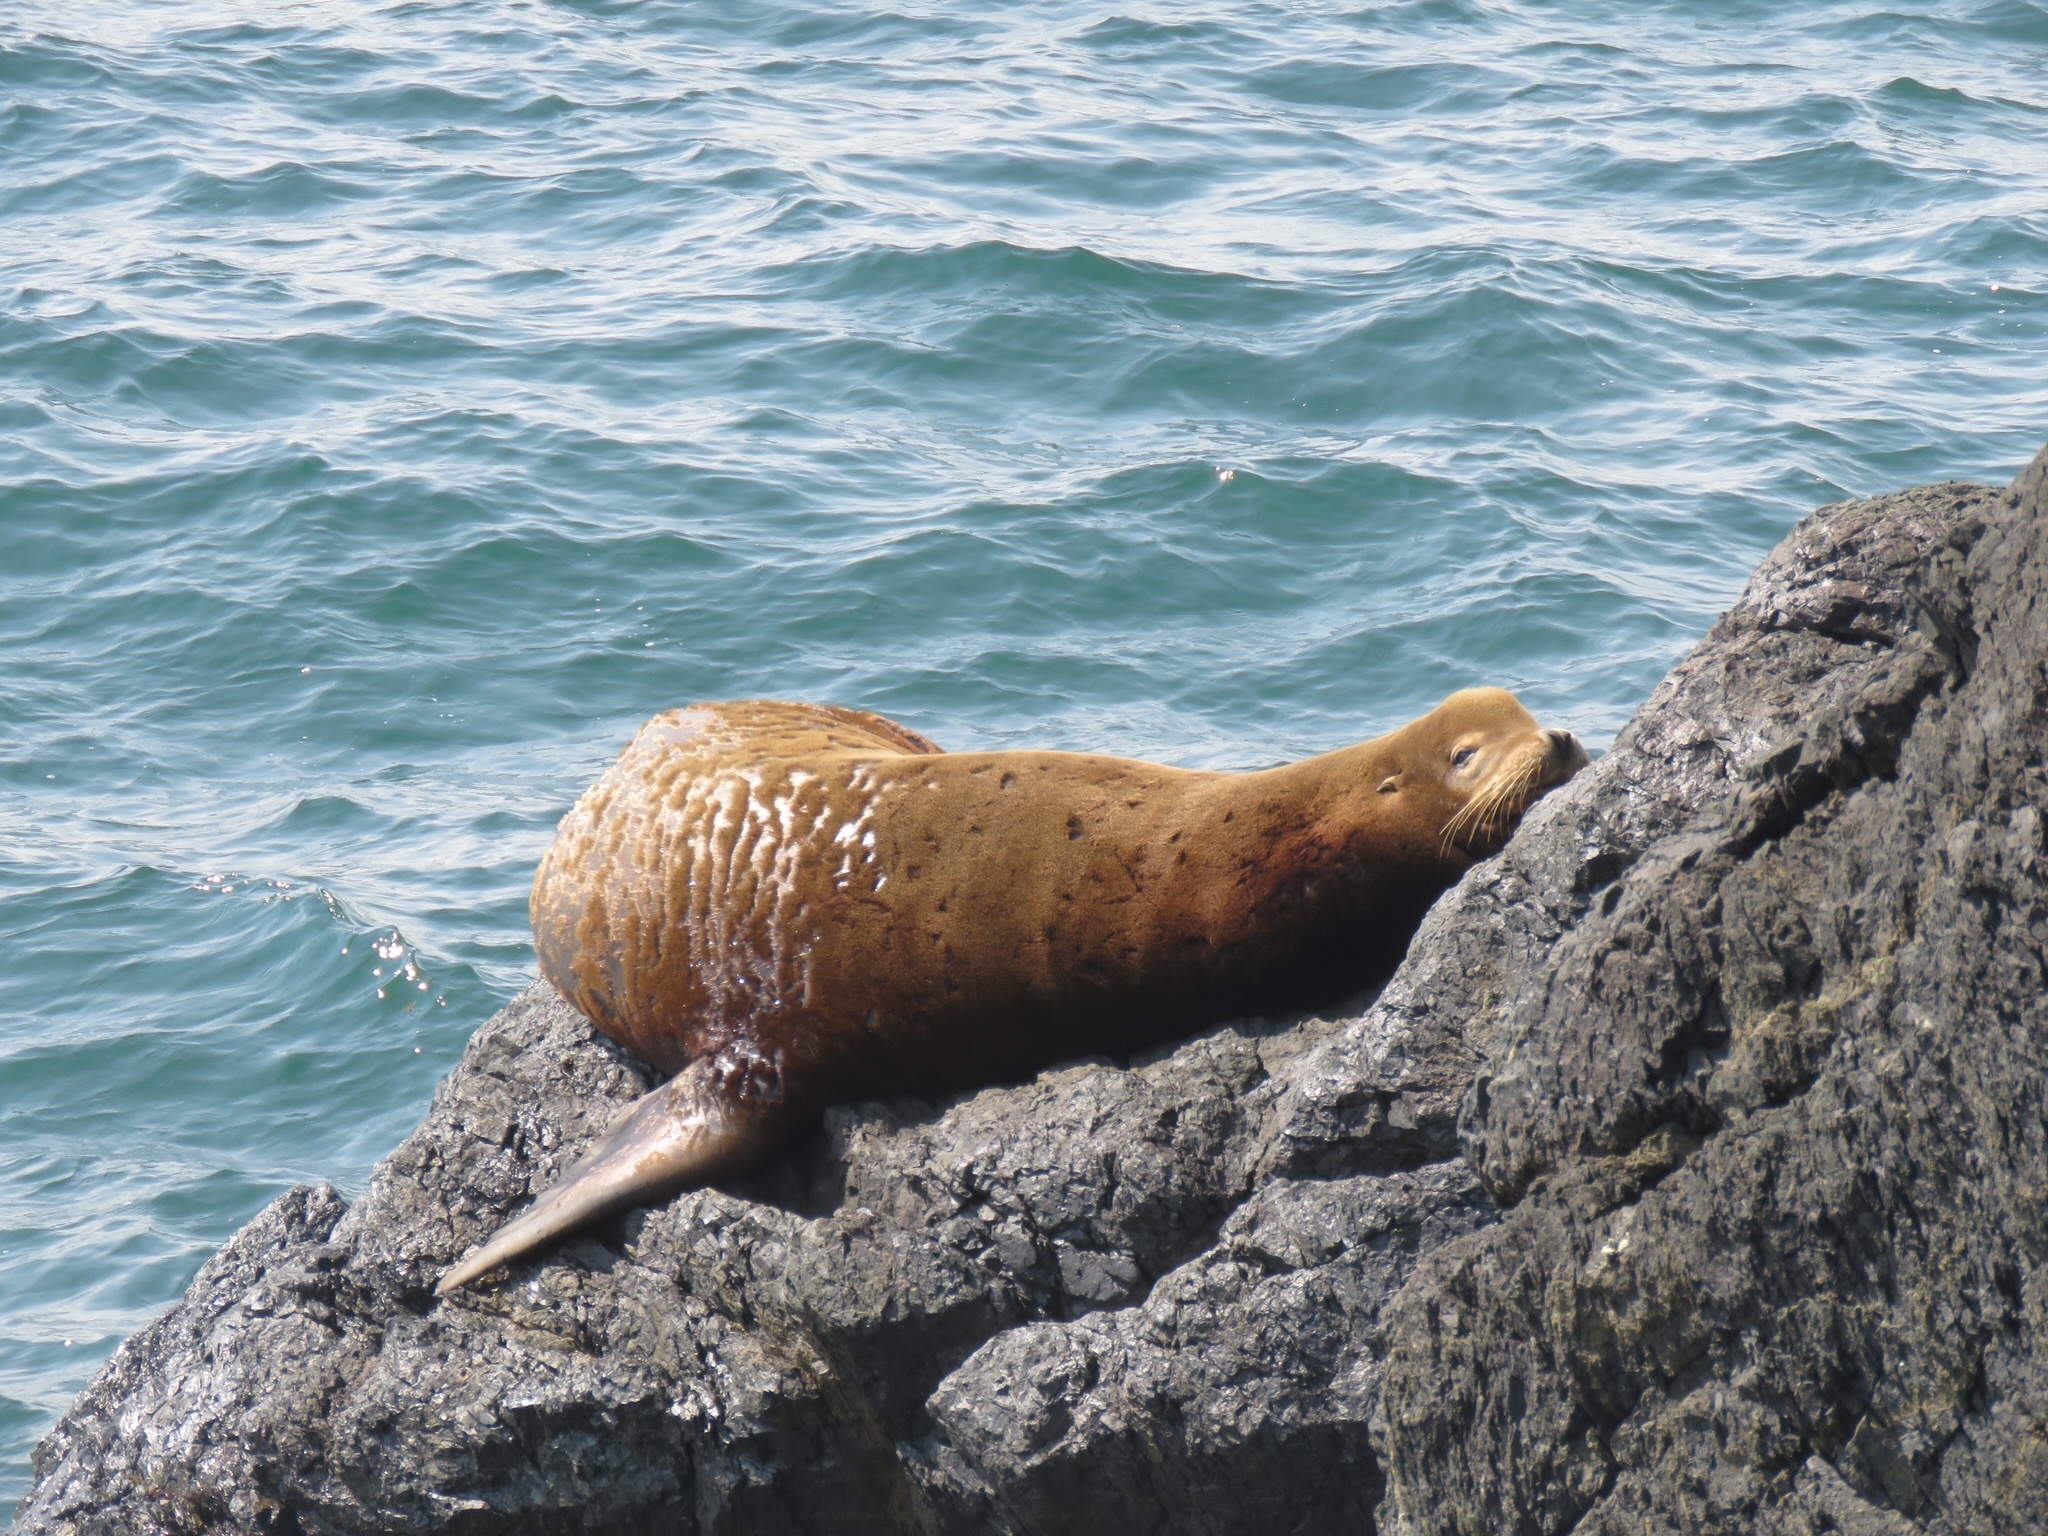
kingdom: Animalia
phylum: Chordata
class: Mammalia
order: Carnivora
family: Otariidae
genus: Zalophus
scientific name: Zalophus californianus
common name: California sea lion
